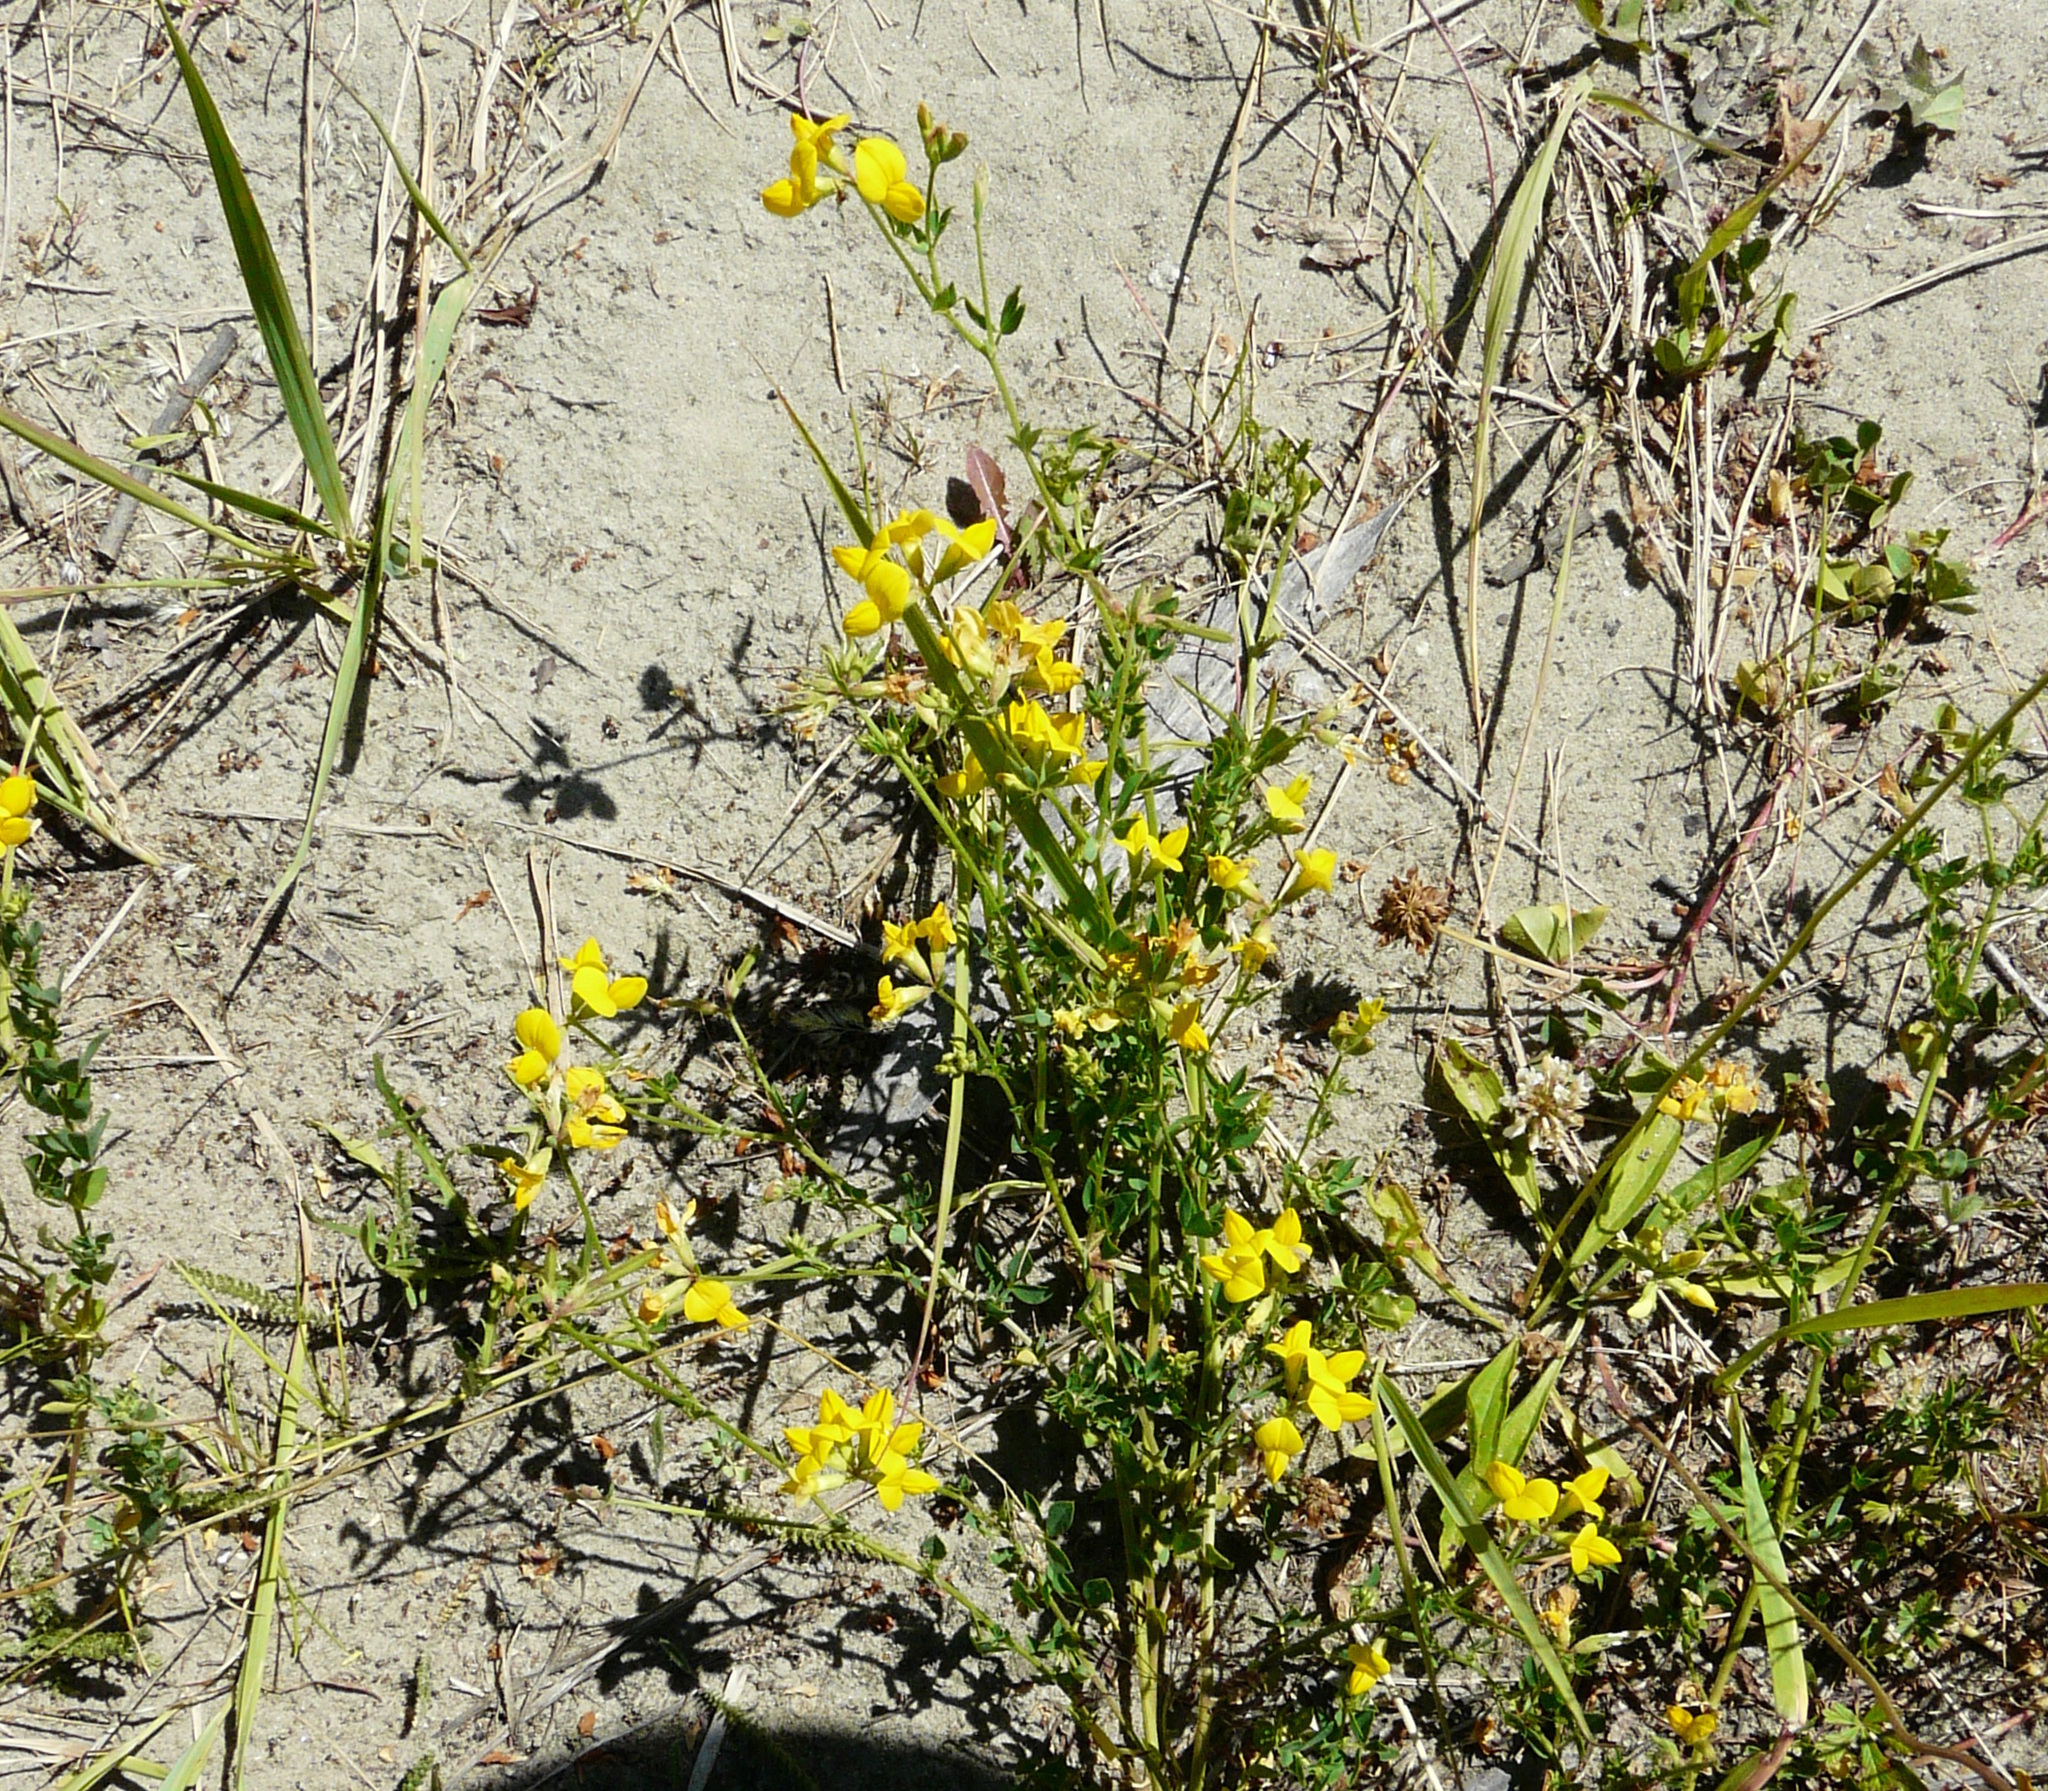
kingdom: Plantae
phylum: Tracheophyta
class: Magnoliopsida
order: Fabales
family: Fabaceae
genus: Lotus
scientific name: Lotus corniculatus
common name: Common bird's-foot-trefoil
